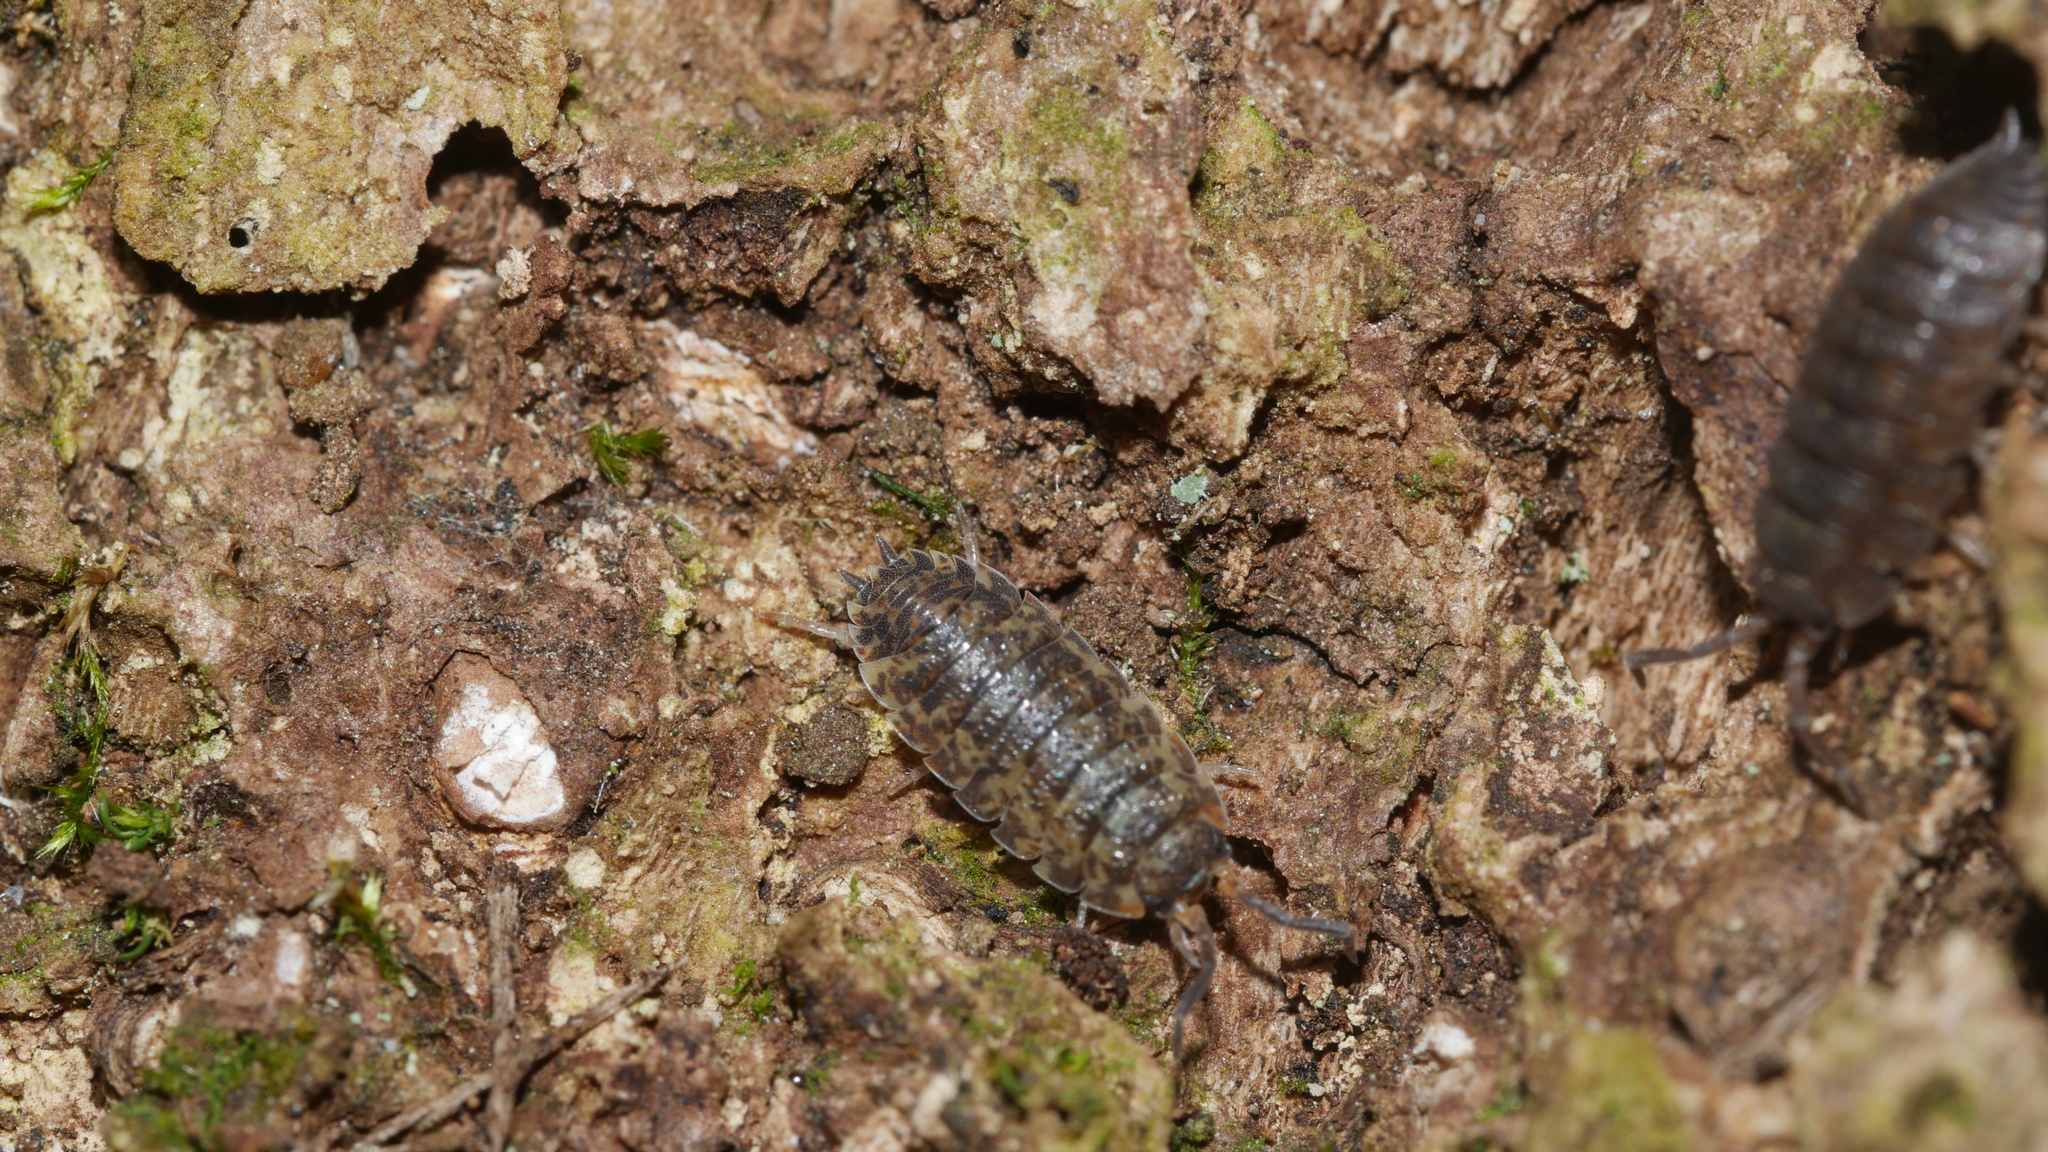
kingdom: Animalia
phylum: Arthropoda
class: Malacostraca
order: Isopoda
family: Porcellionidae
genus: Porcellio
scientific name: Porcellio scaber
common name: Common rough woodlouse
